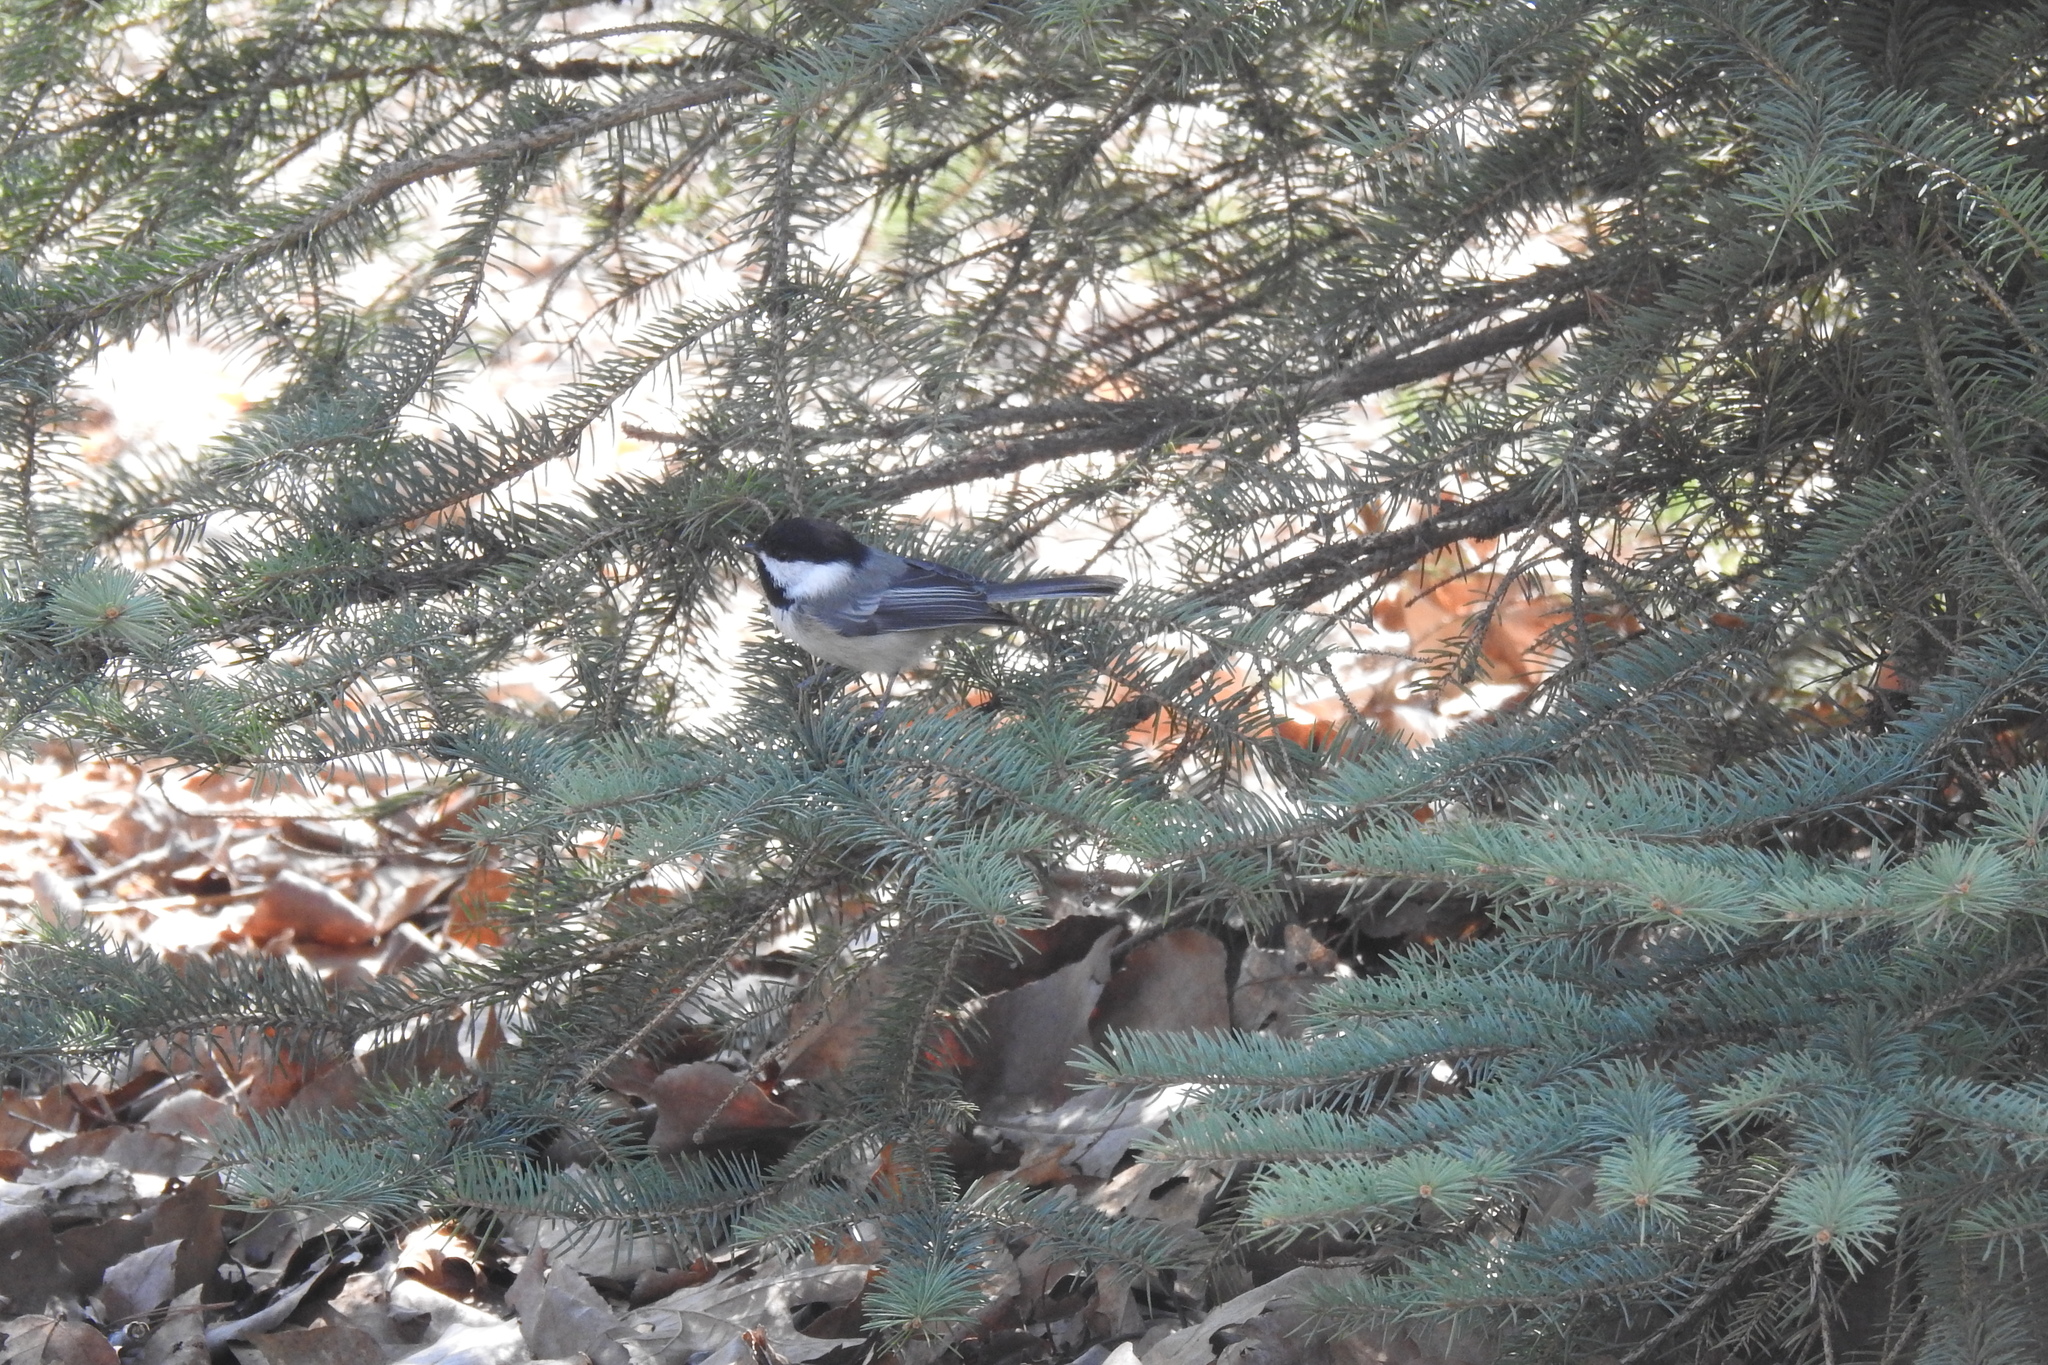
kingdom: Animalia
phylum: Chordata
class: Aves
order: Passeriformes
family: Paridae
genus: Poecile
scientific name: Poecile atricapillus
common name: Black-capped chickadee
